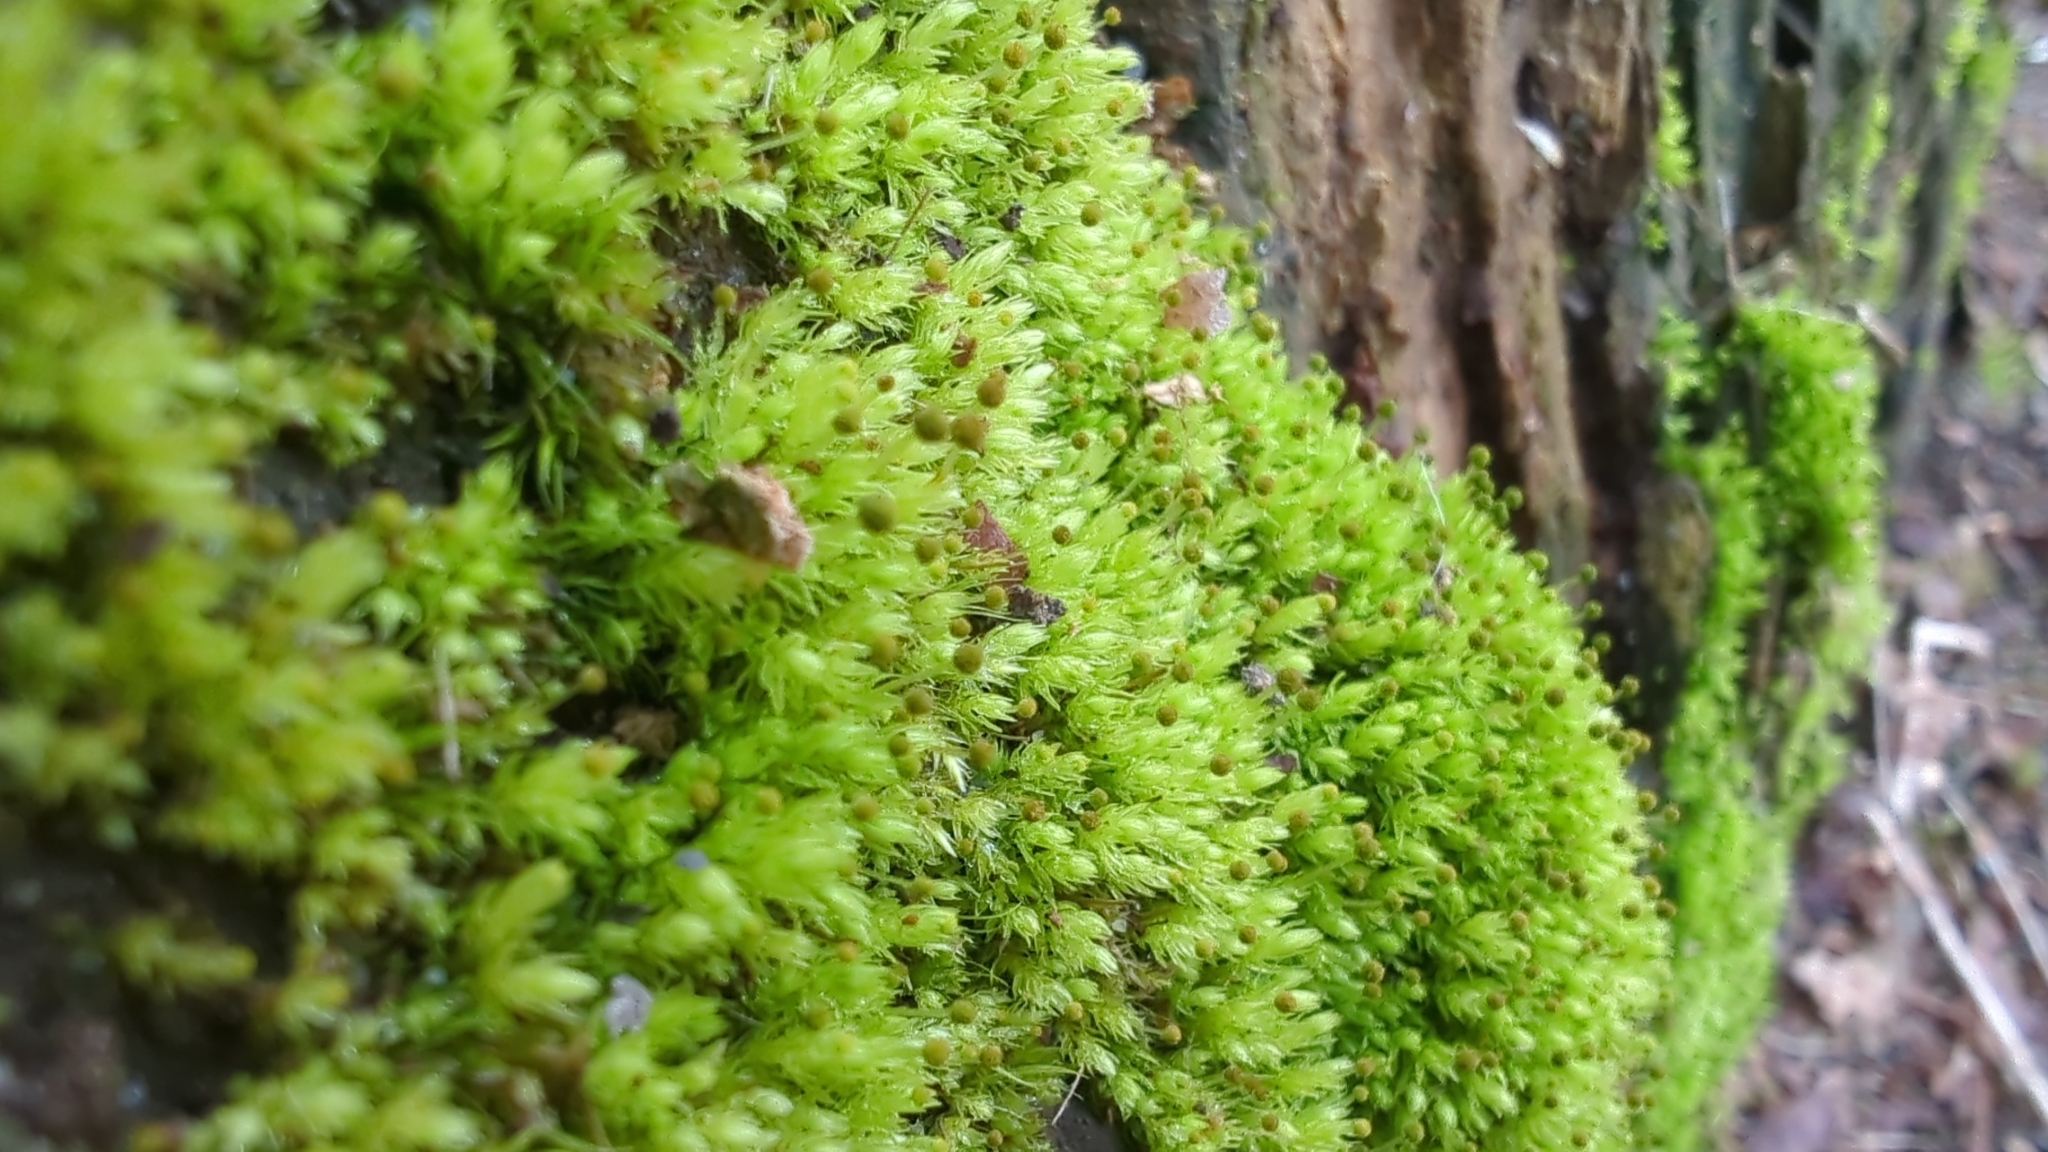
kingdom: Plantae
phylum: Bryophyta
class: Bryopsida
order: Aulacomniales
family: Aulacomniaceae
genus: Aulacomnium
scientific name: Aulacomnium androgynum
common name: Little groove moss
